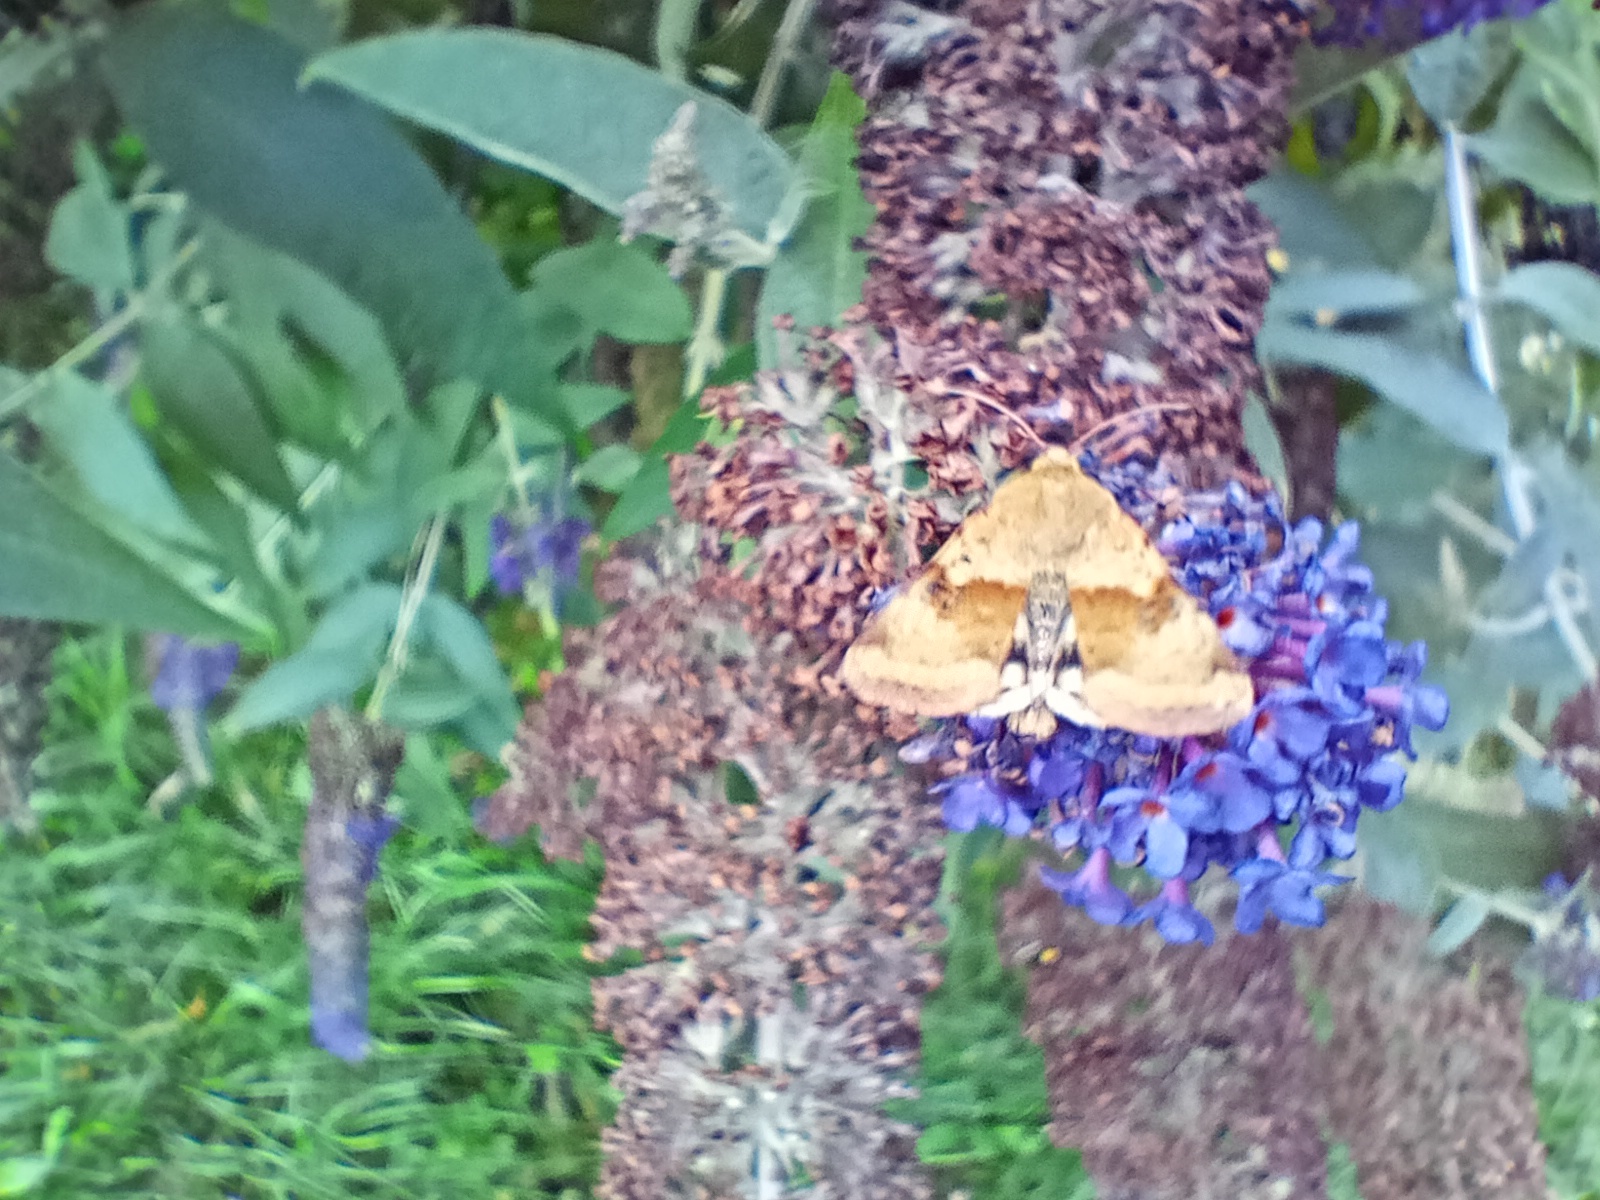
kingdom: Animalia
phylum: Arthropoda
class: Insecta
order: Lepidoptera
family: Noctuidae
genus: Heliothis
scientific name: Heliothis viriplaca
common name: Marbled clover
